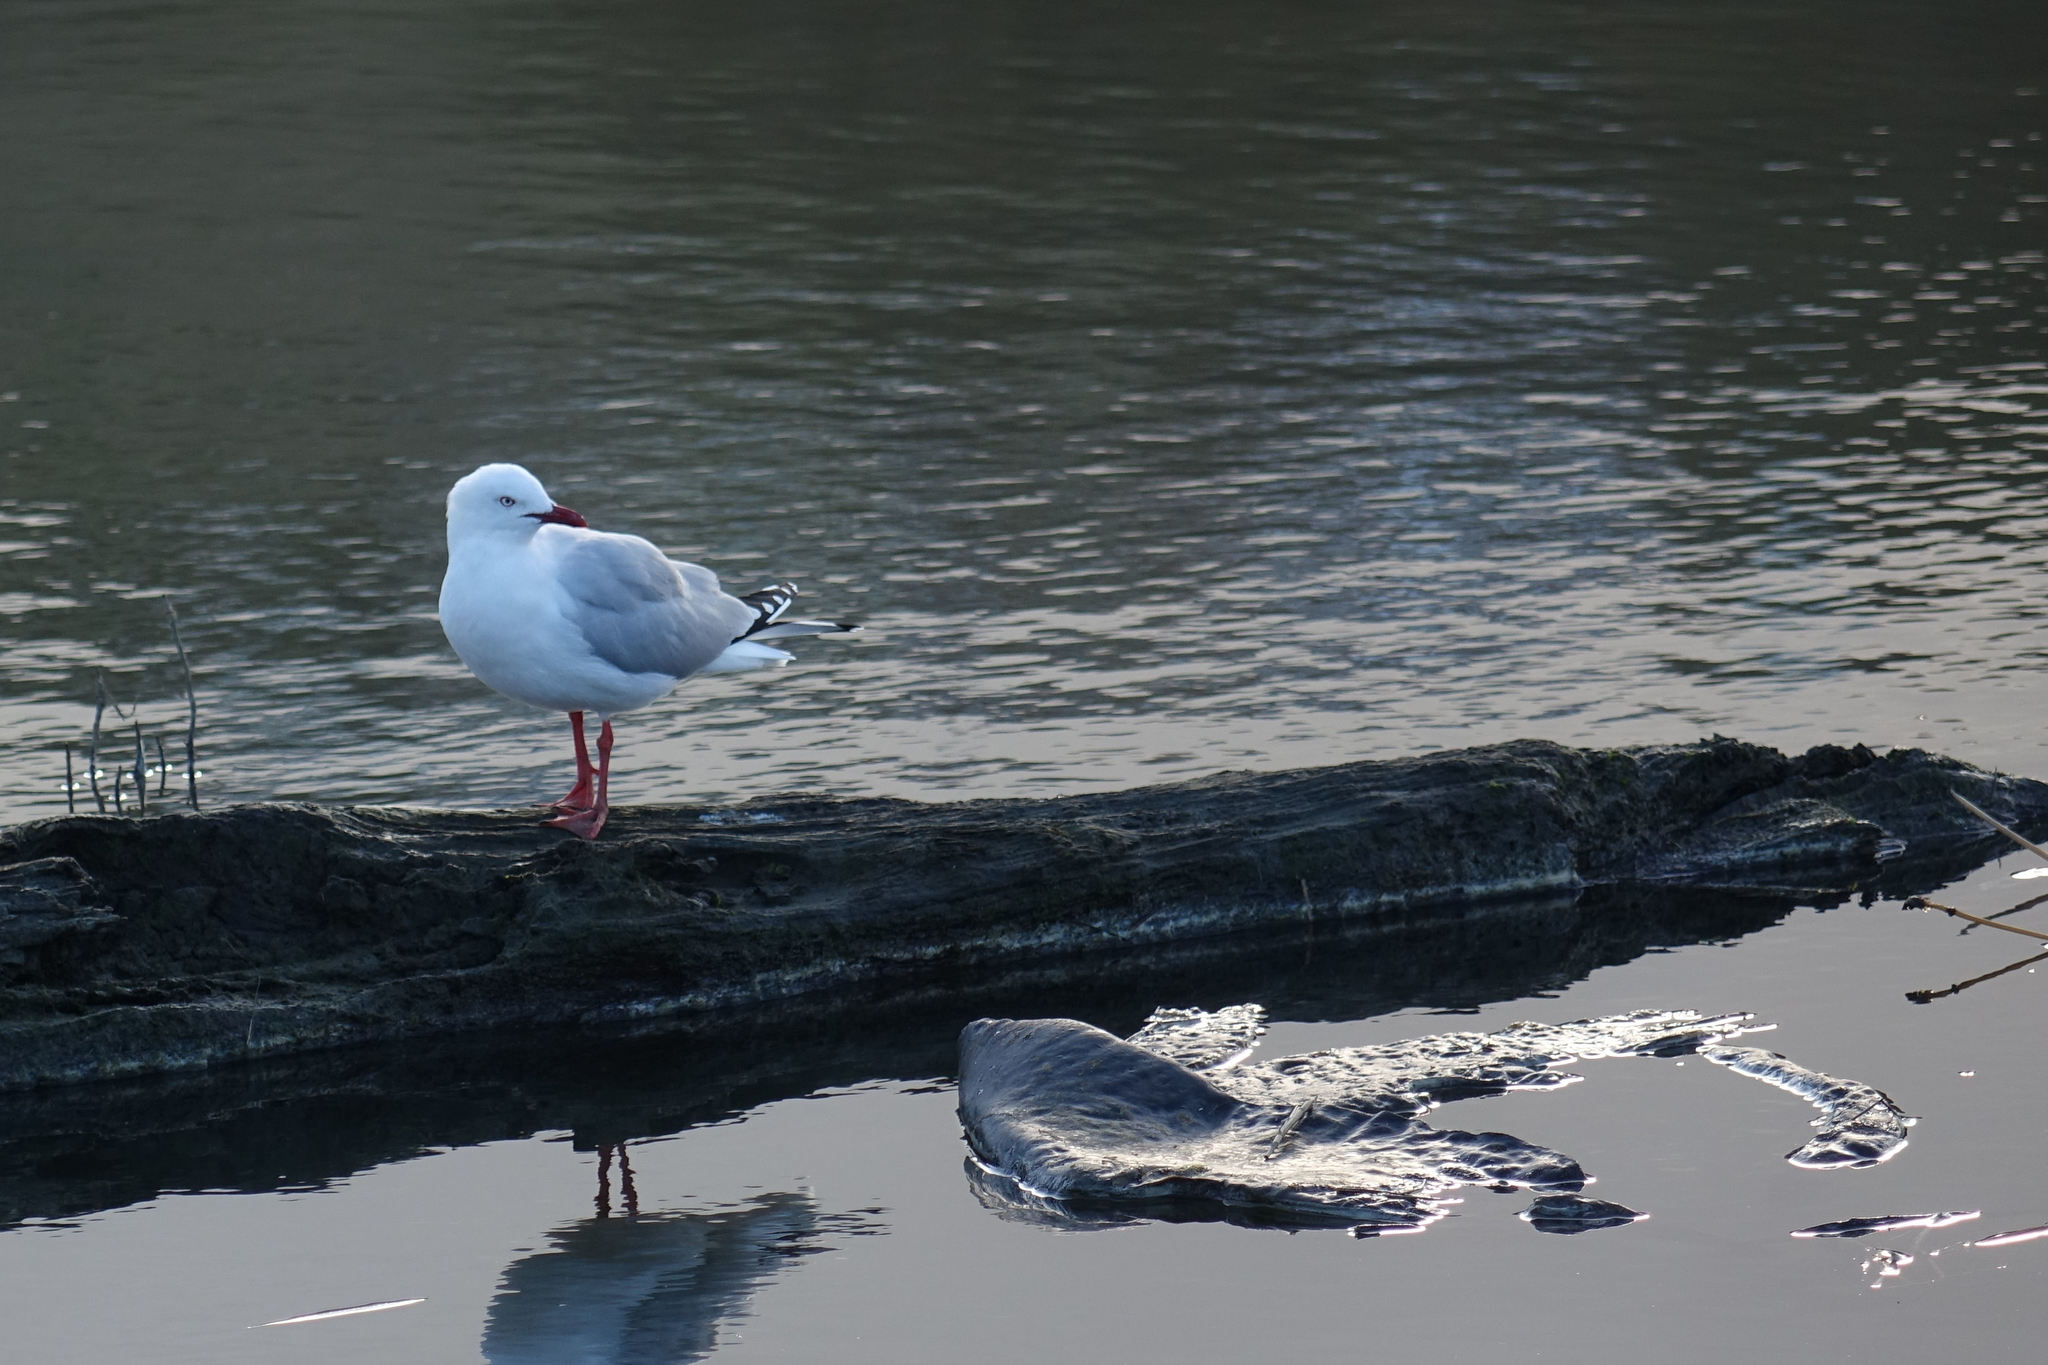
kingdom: Animalia
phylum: Chordata
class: Aves
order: Charadriiformes
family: Laridae
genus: Chroicocephalus
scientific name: Chroicocephalus novaehollandiae
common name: Silver gull
